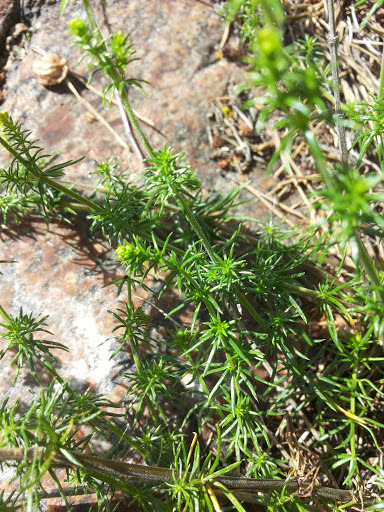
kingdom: Plantae
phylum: Tracheophyta
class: Magnoliopsida
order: Gentianales
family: Rubiaceae
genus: Galium
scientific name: Galium verum
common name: Lady's bedstraw
